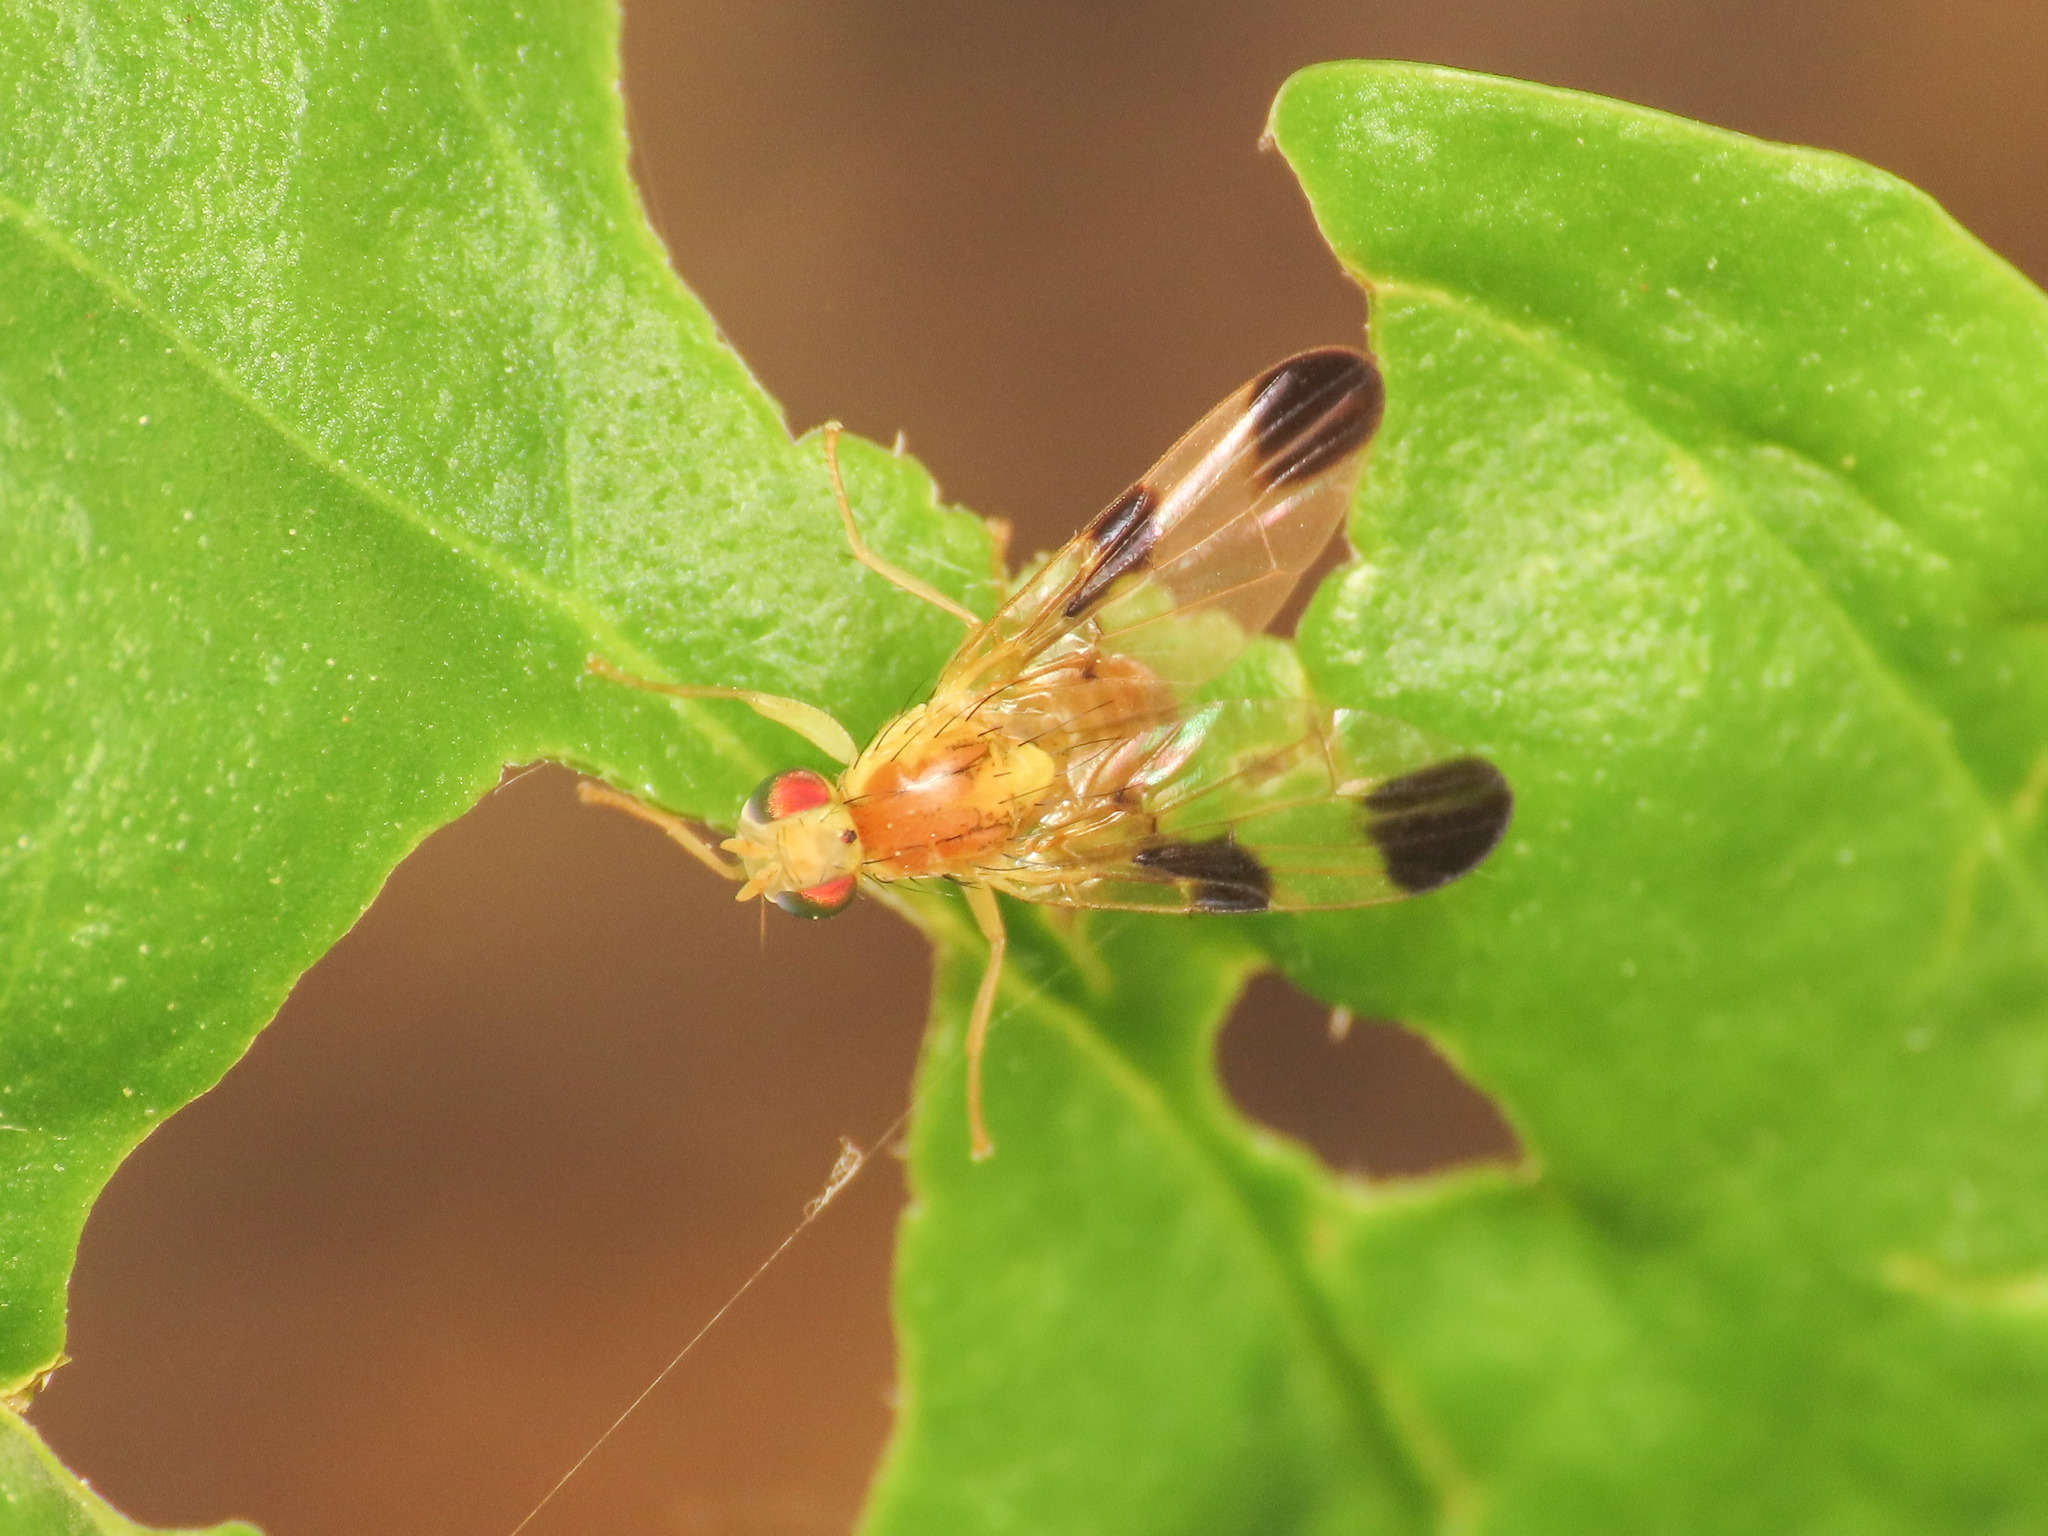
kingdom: Animalia
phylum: Arthropoda
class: Insecta
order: Diptera
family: Tephritidae
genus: Trypeta
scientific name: Trypeta zoe
